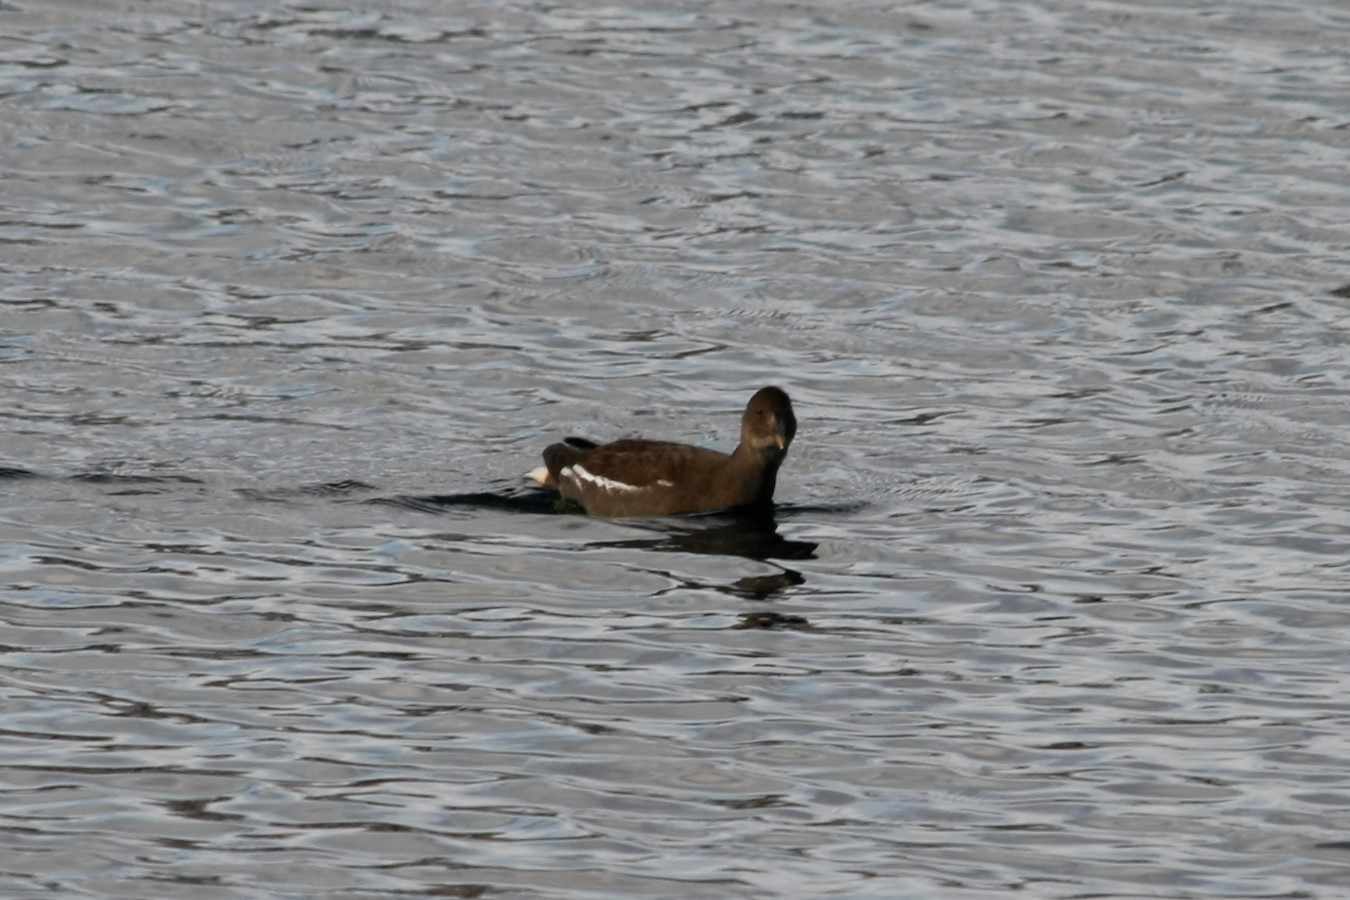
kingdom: Animalia
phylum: Chordata
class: Aves
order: Gruiformes
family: Rallidae
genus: Gallinula
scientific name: Gallinula chloropus
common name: Common moorhen
